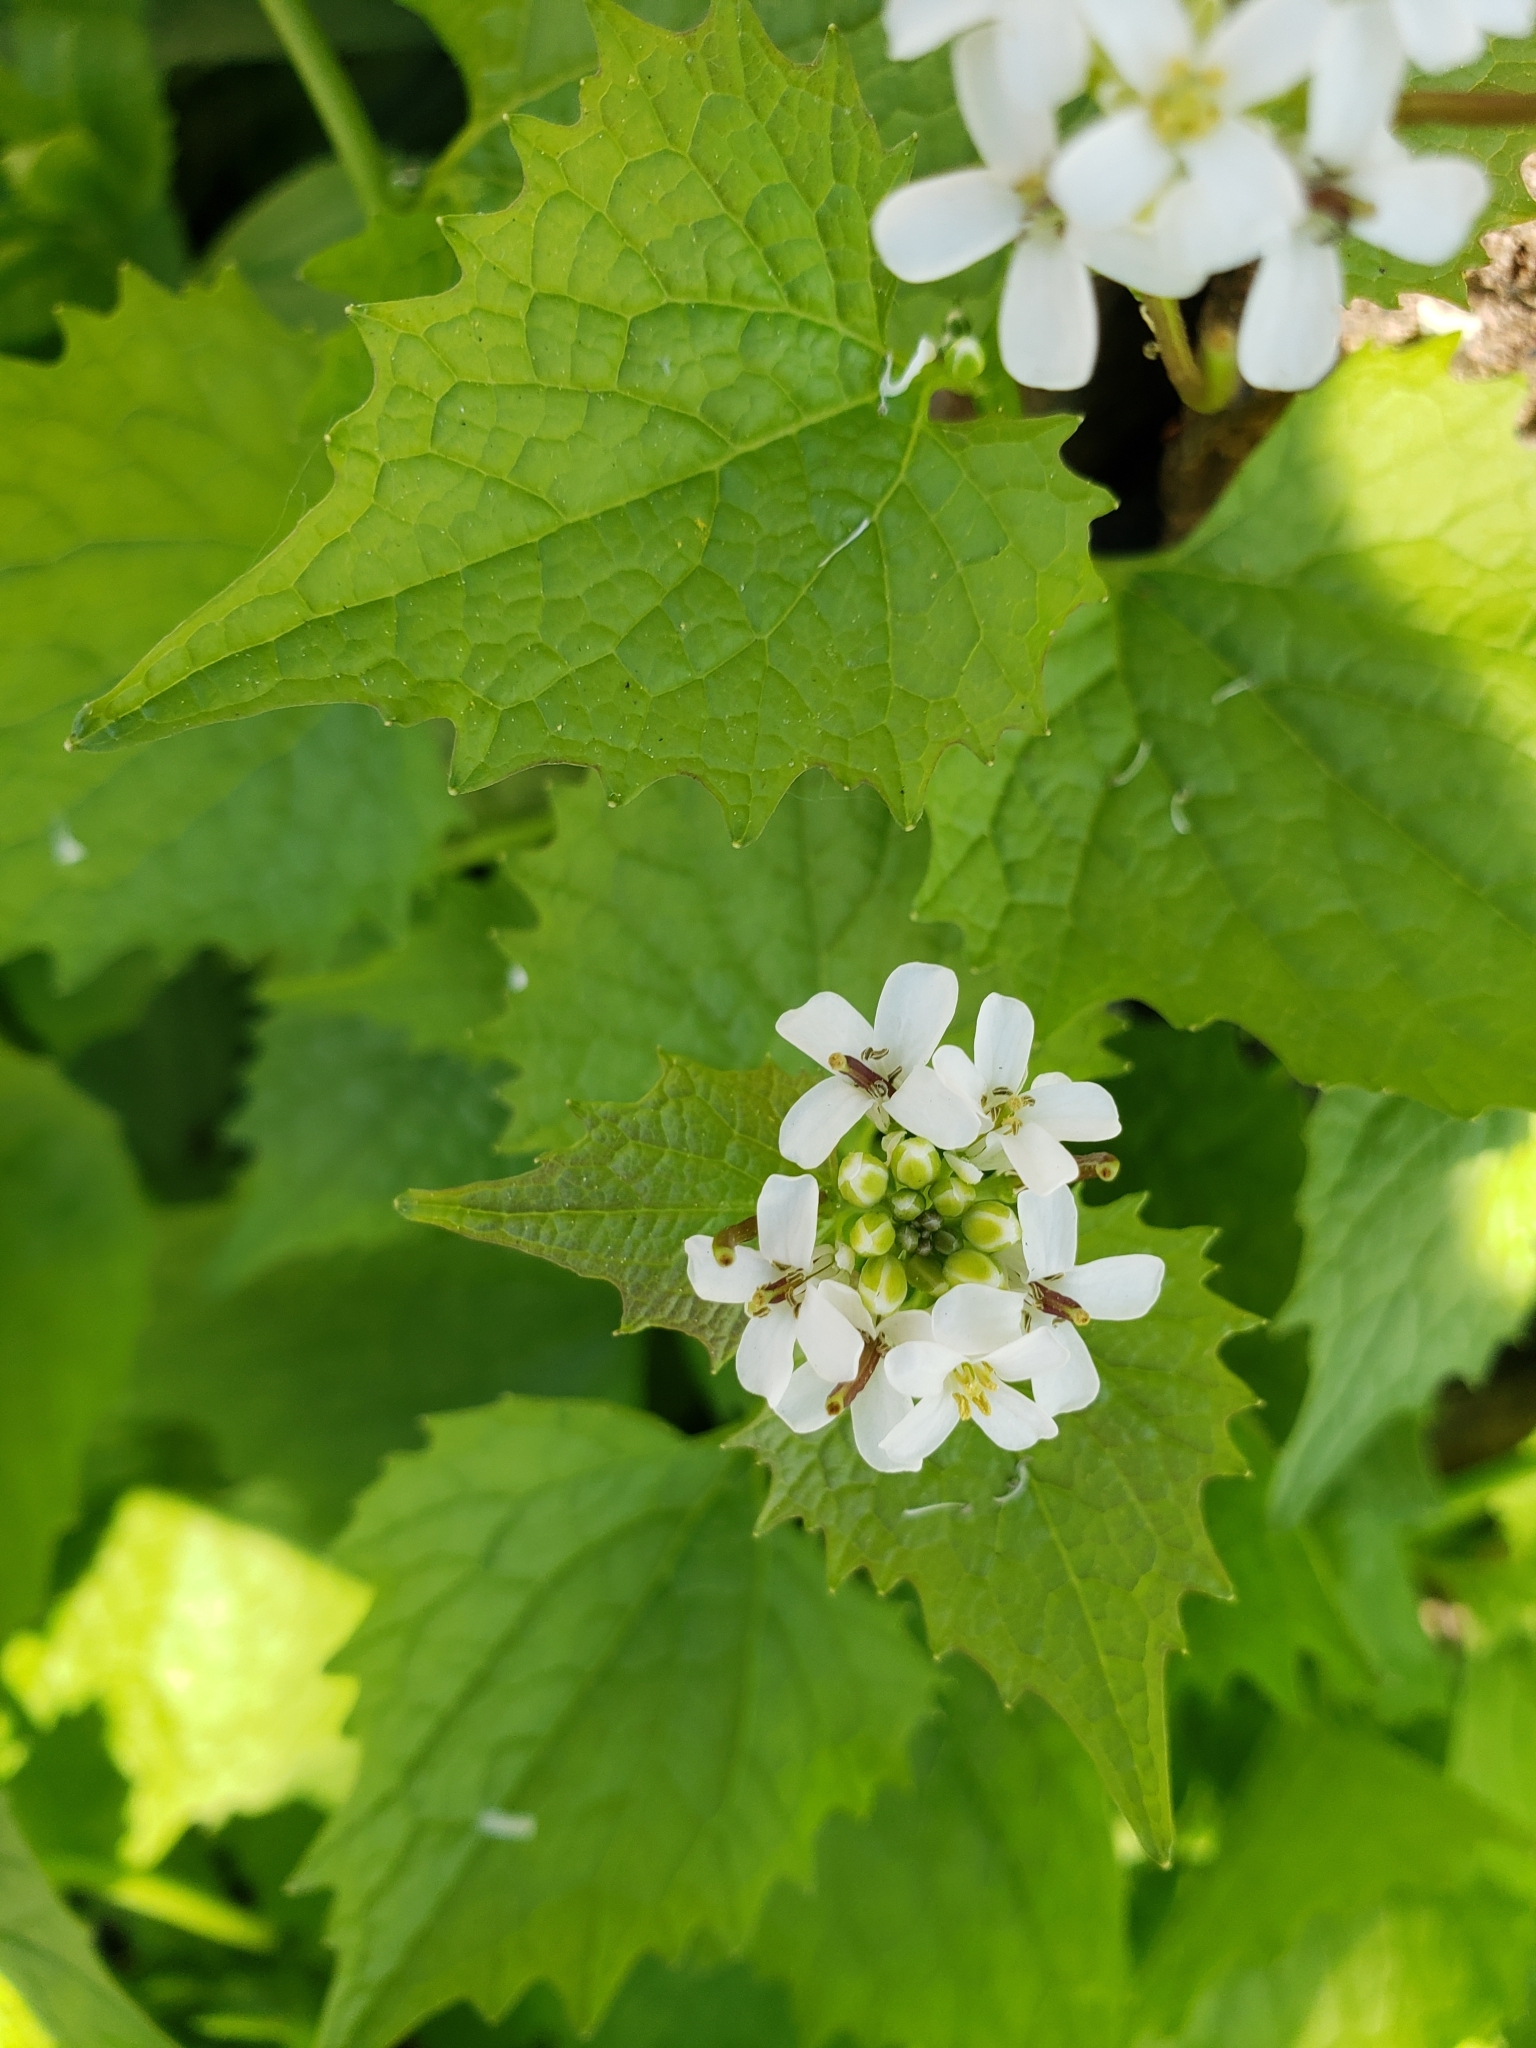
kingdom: Plantae
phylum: Tracheophyta
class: Magnoliopsida
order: Brassicales
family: Brassicaceae
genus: Alliaria
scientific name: Alliaria petiolata
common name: Garlic mustard
